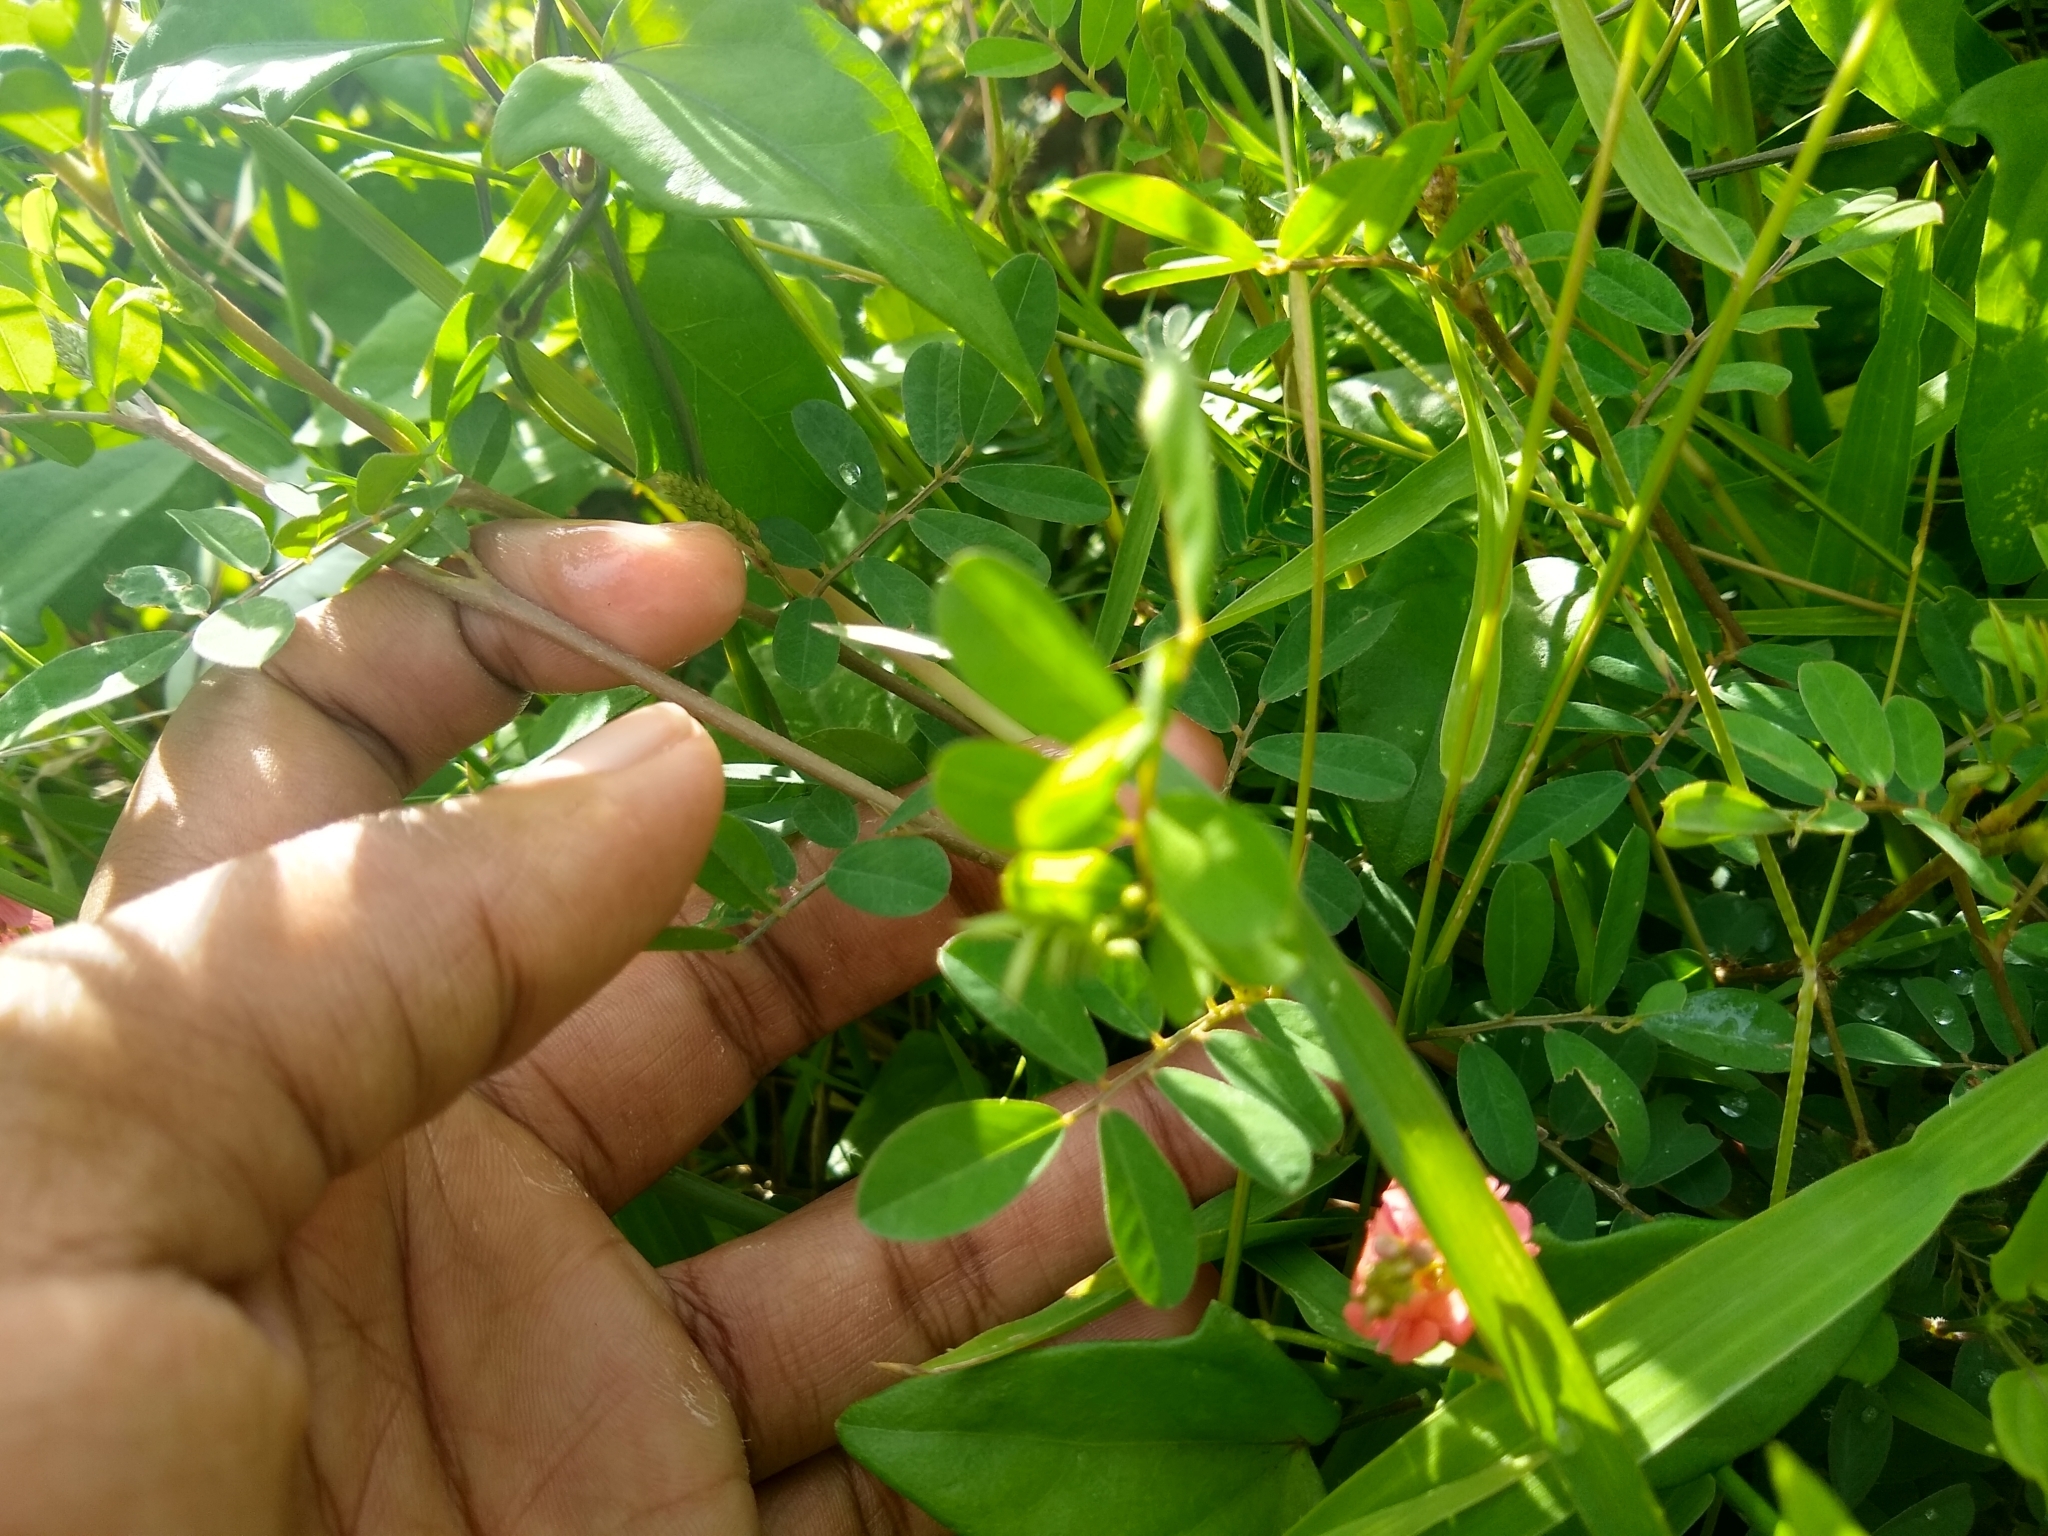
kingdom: Plantae
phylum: Tracheophyta
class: Magnoliopsida
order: Fabales
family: Fabaceae
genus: Indigofera
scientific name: Indigofera spicata
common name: Creeping indigo
